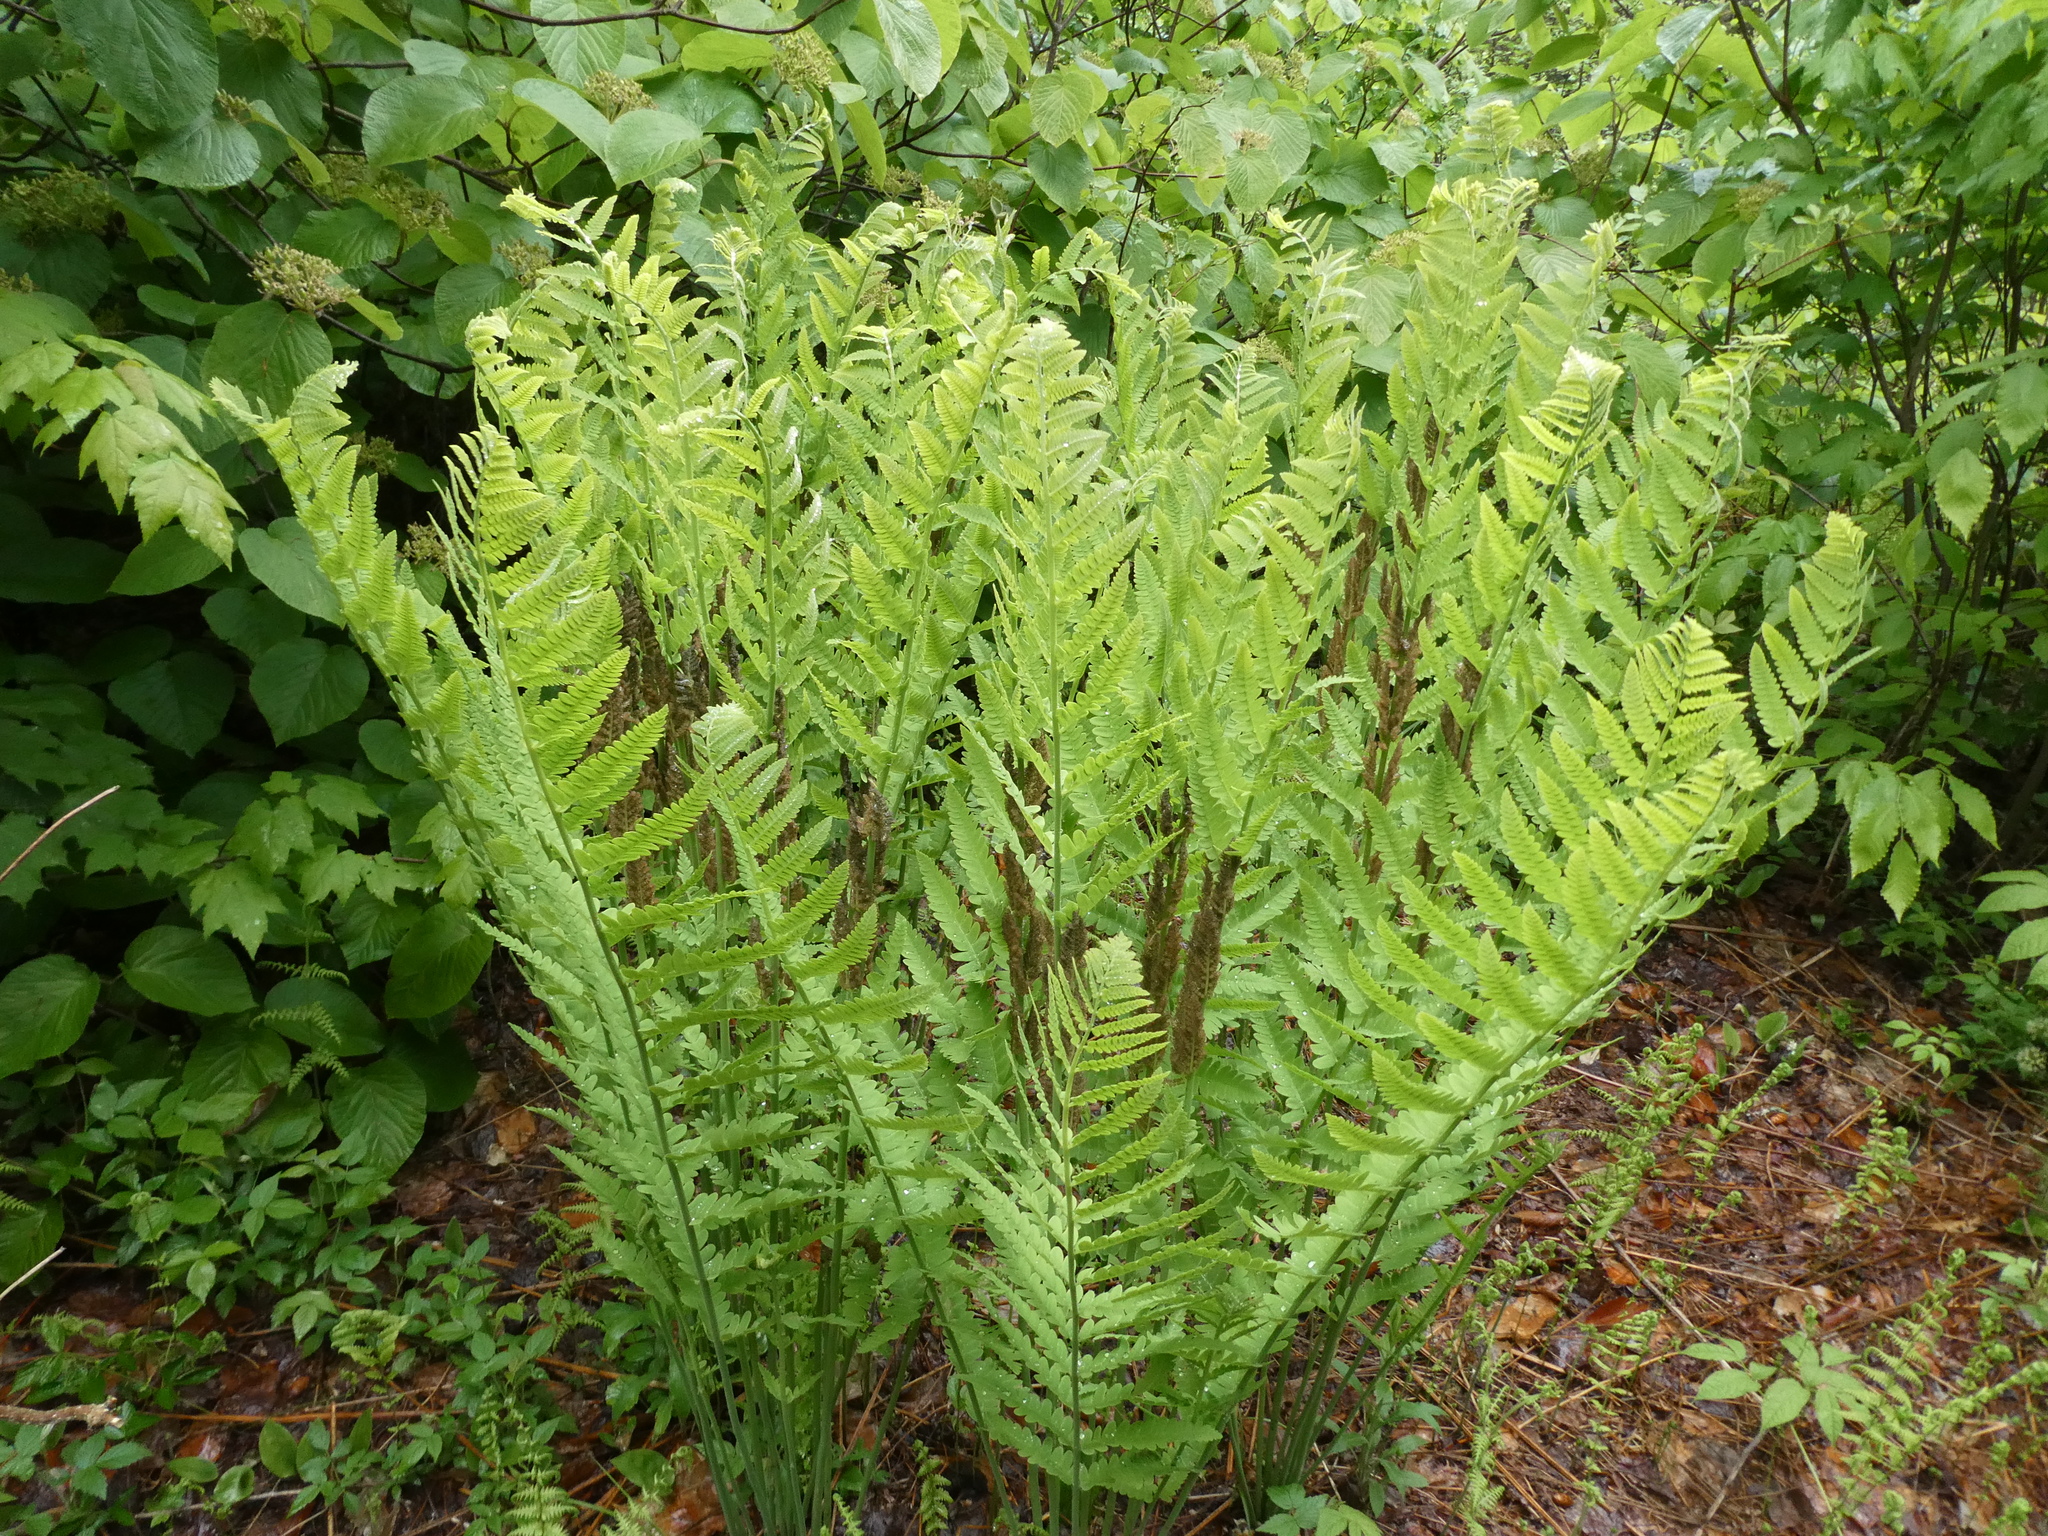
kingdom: Plantae
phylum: Tracheophyta
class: Polypodiopsida
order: Osmundales
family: Osmundaceae
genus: Claytosmunda
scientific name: Claytosmunda claytoniana
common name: Clayton's fern
